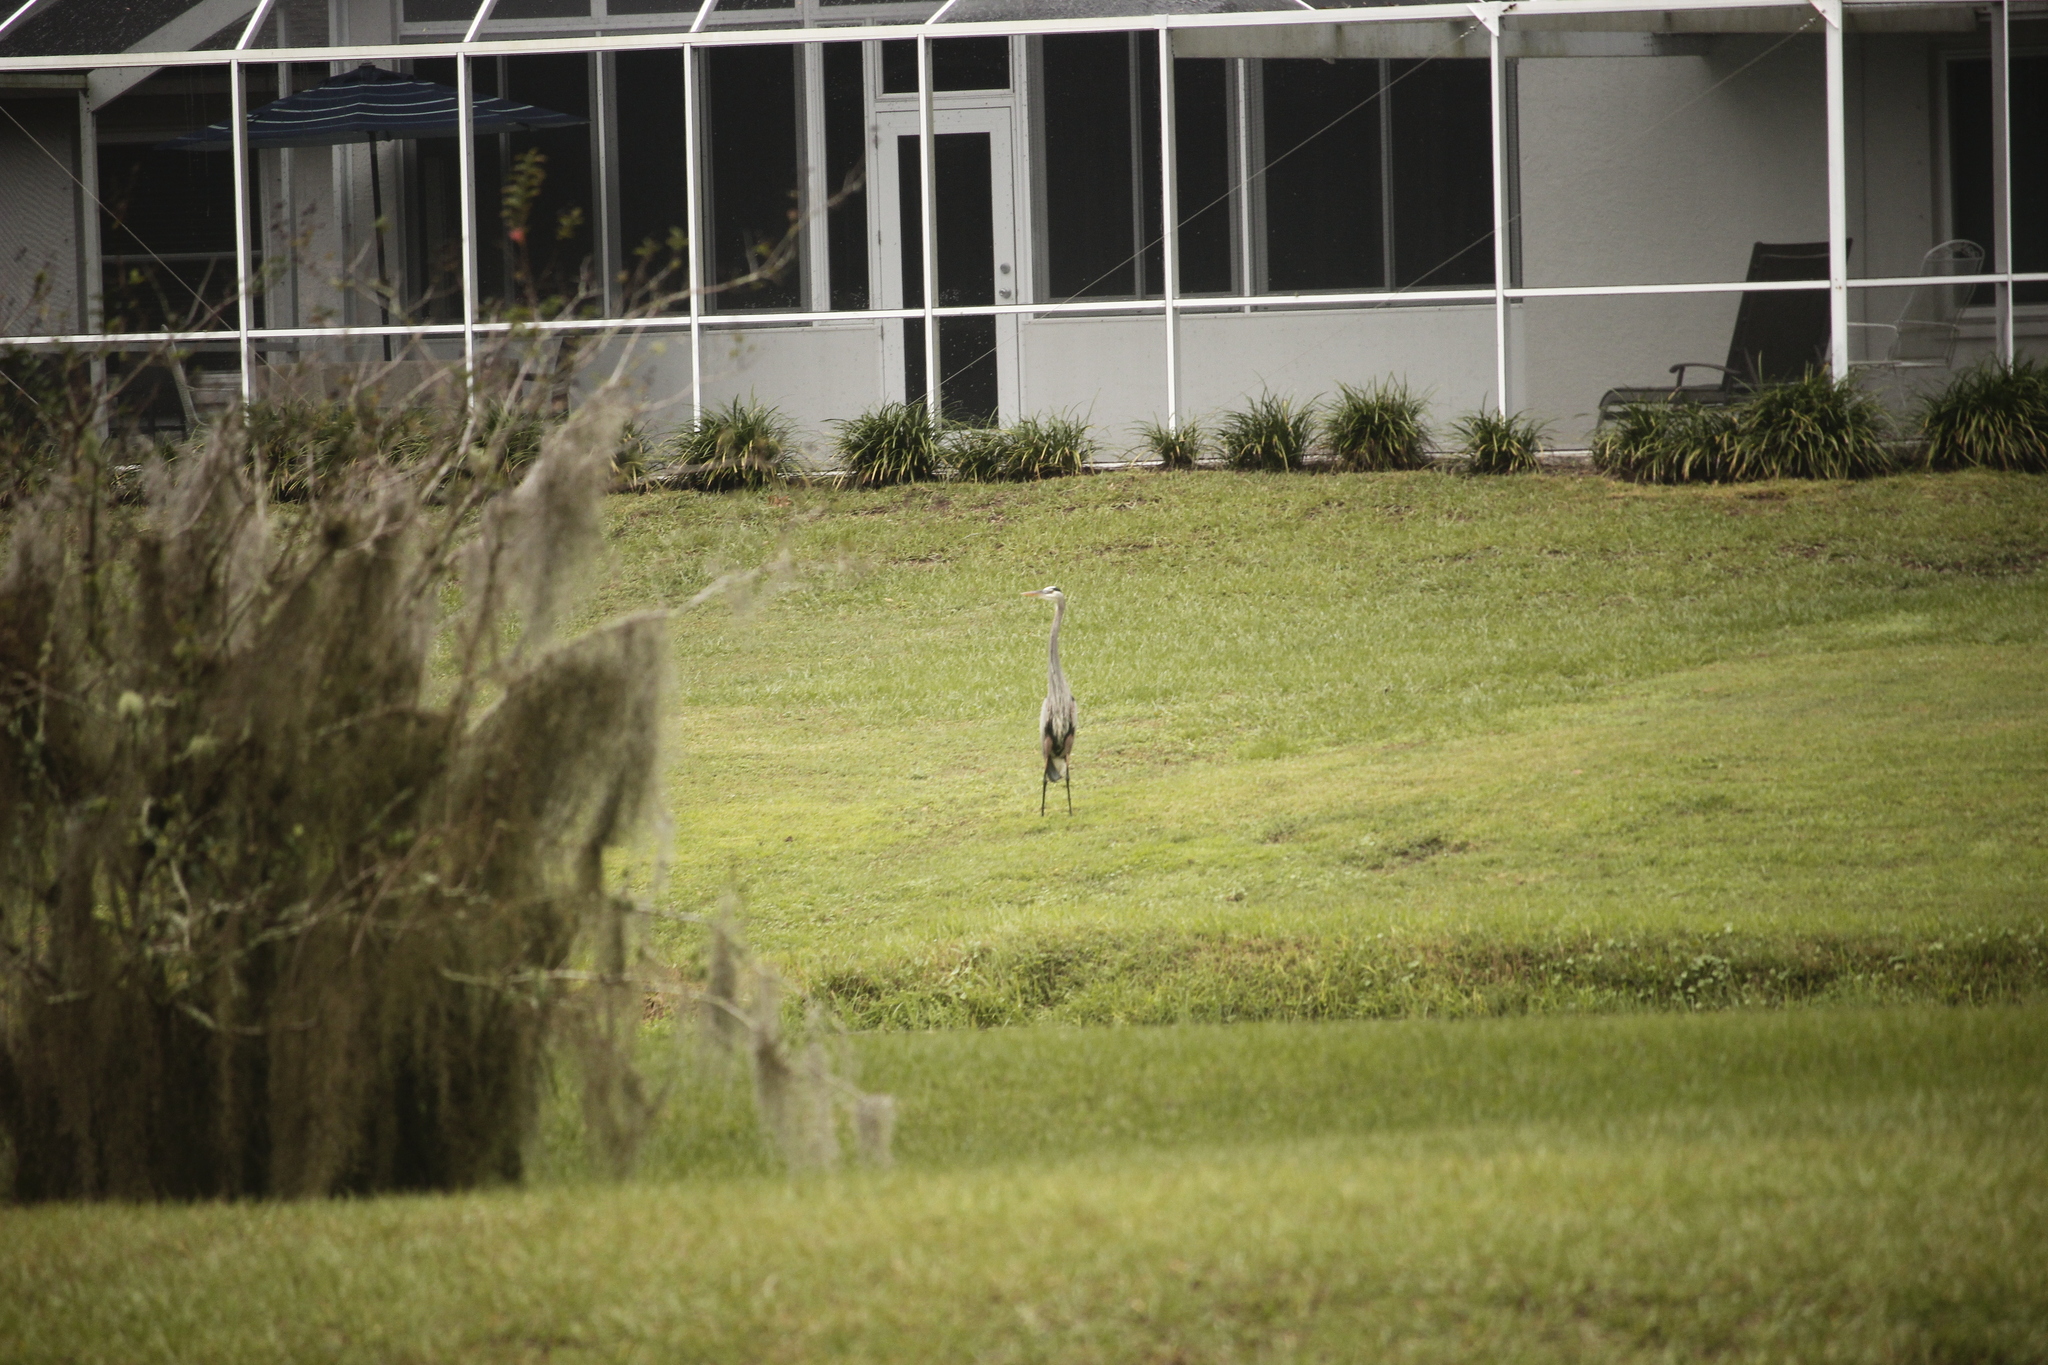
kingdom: Animalia
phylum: Chordata
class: Aves
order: Pelecaniformes
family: Ardeidae
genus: Ardea
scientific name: Ardea herodias
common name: Great blue heron
